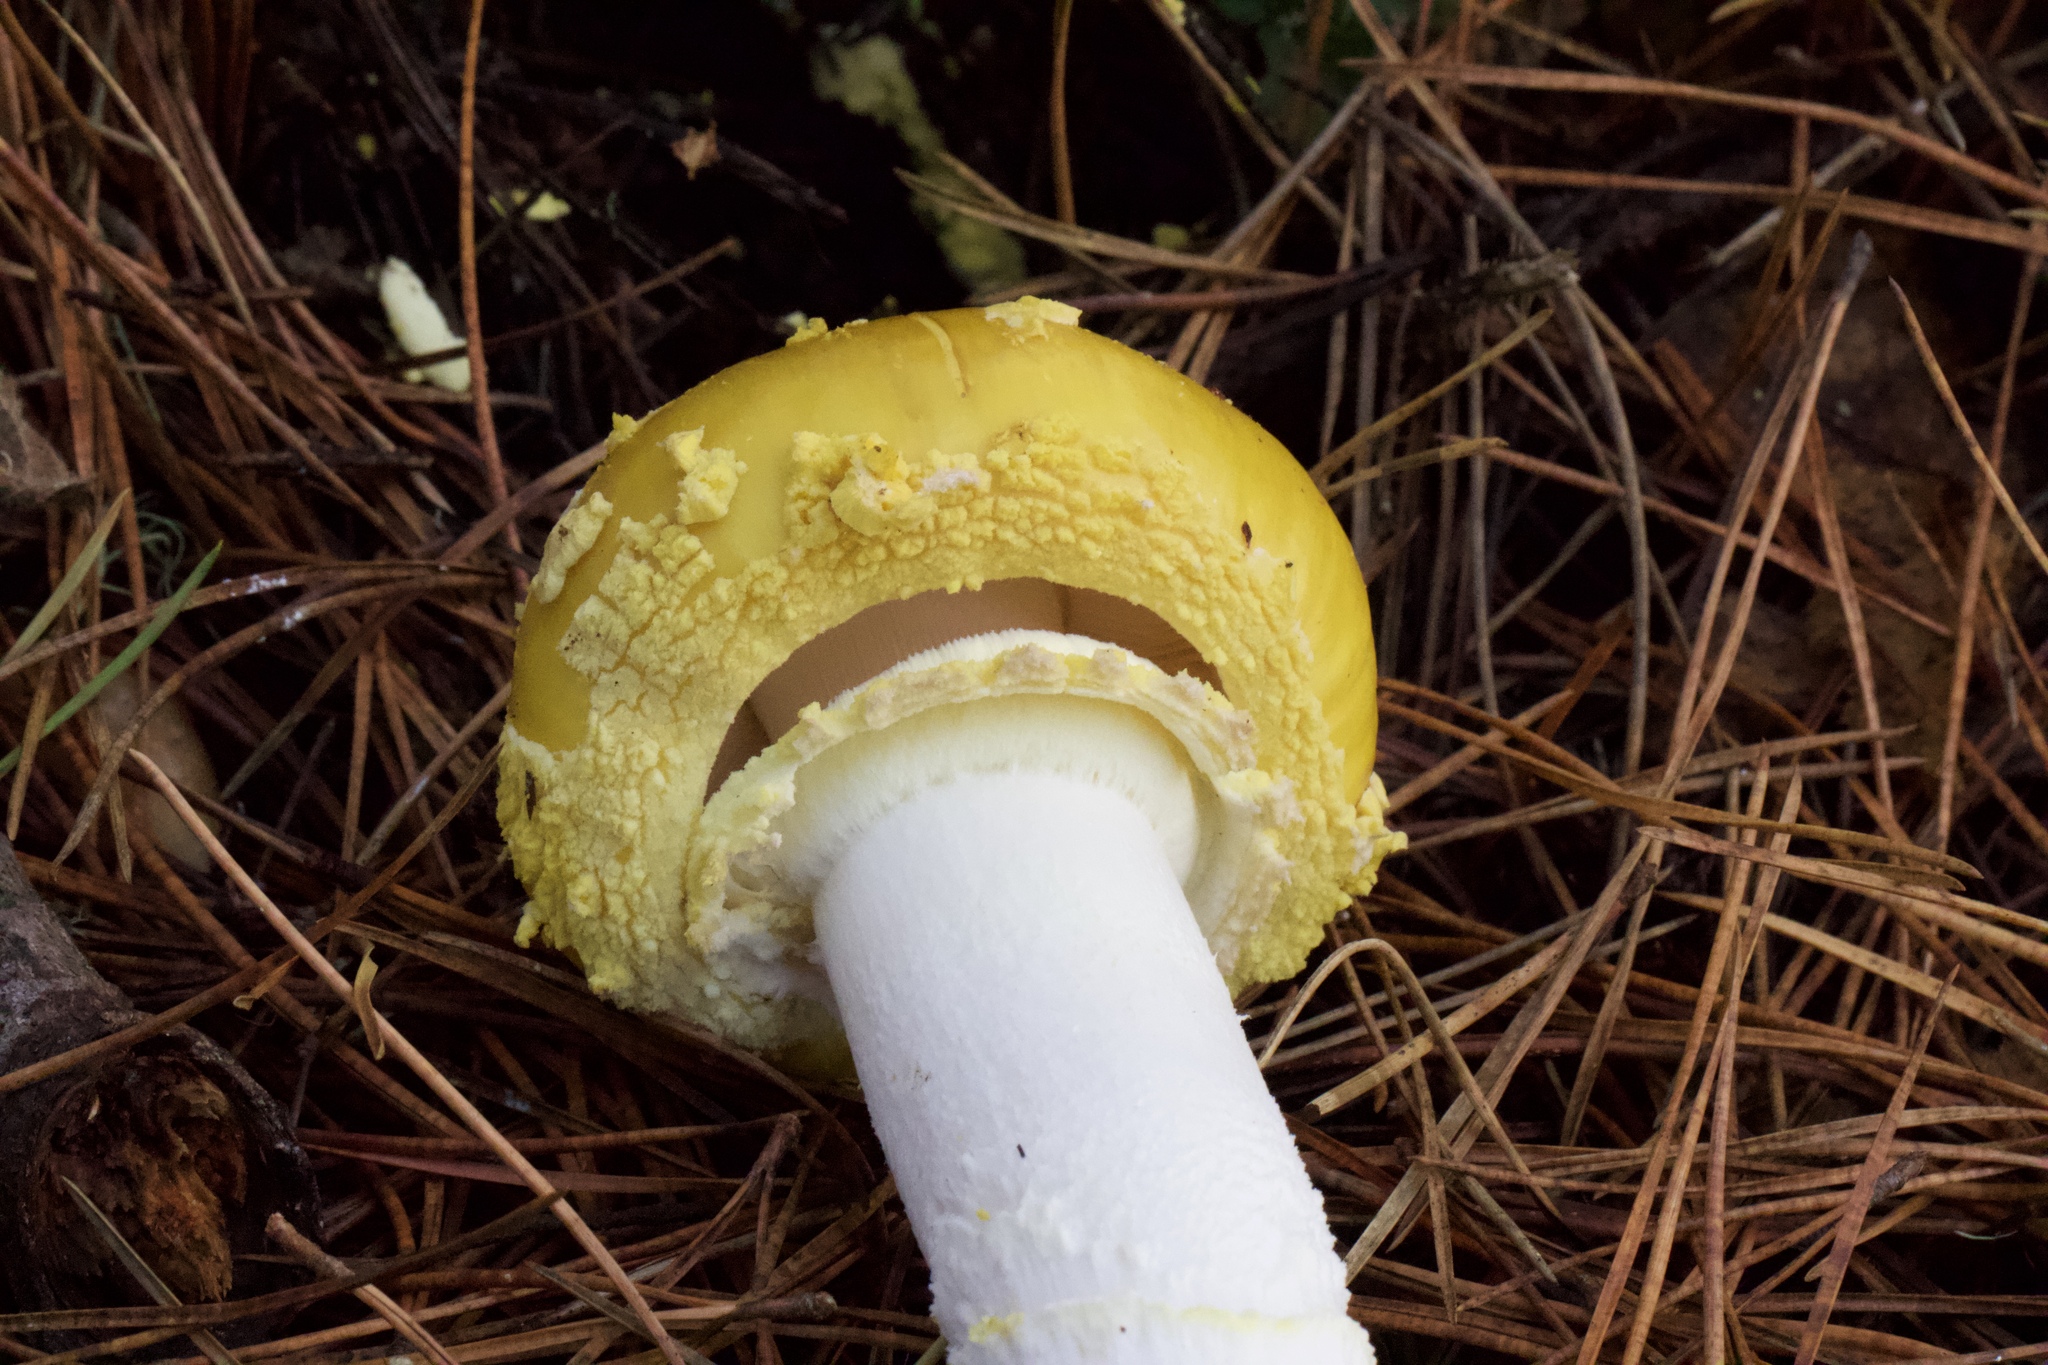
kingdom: Fungi
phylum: Basidiomycota
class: Agaricomycetes
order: Agaricales
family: Amanitaceae
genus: Amanita
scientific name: Amanita augusta
